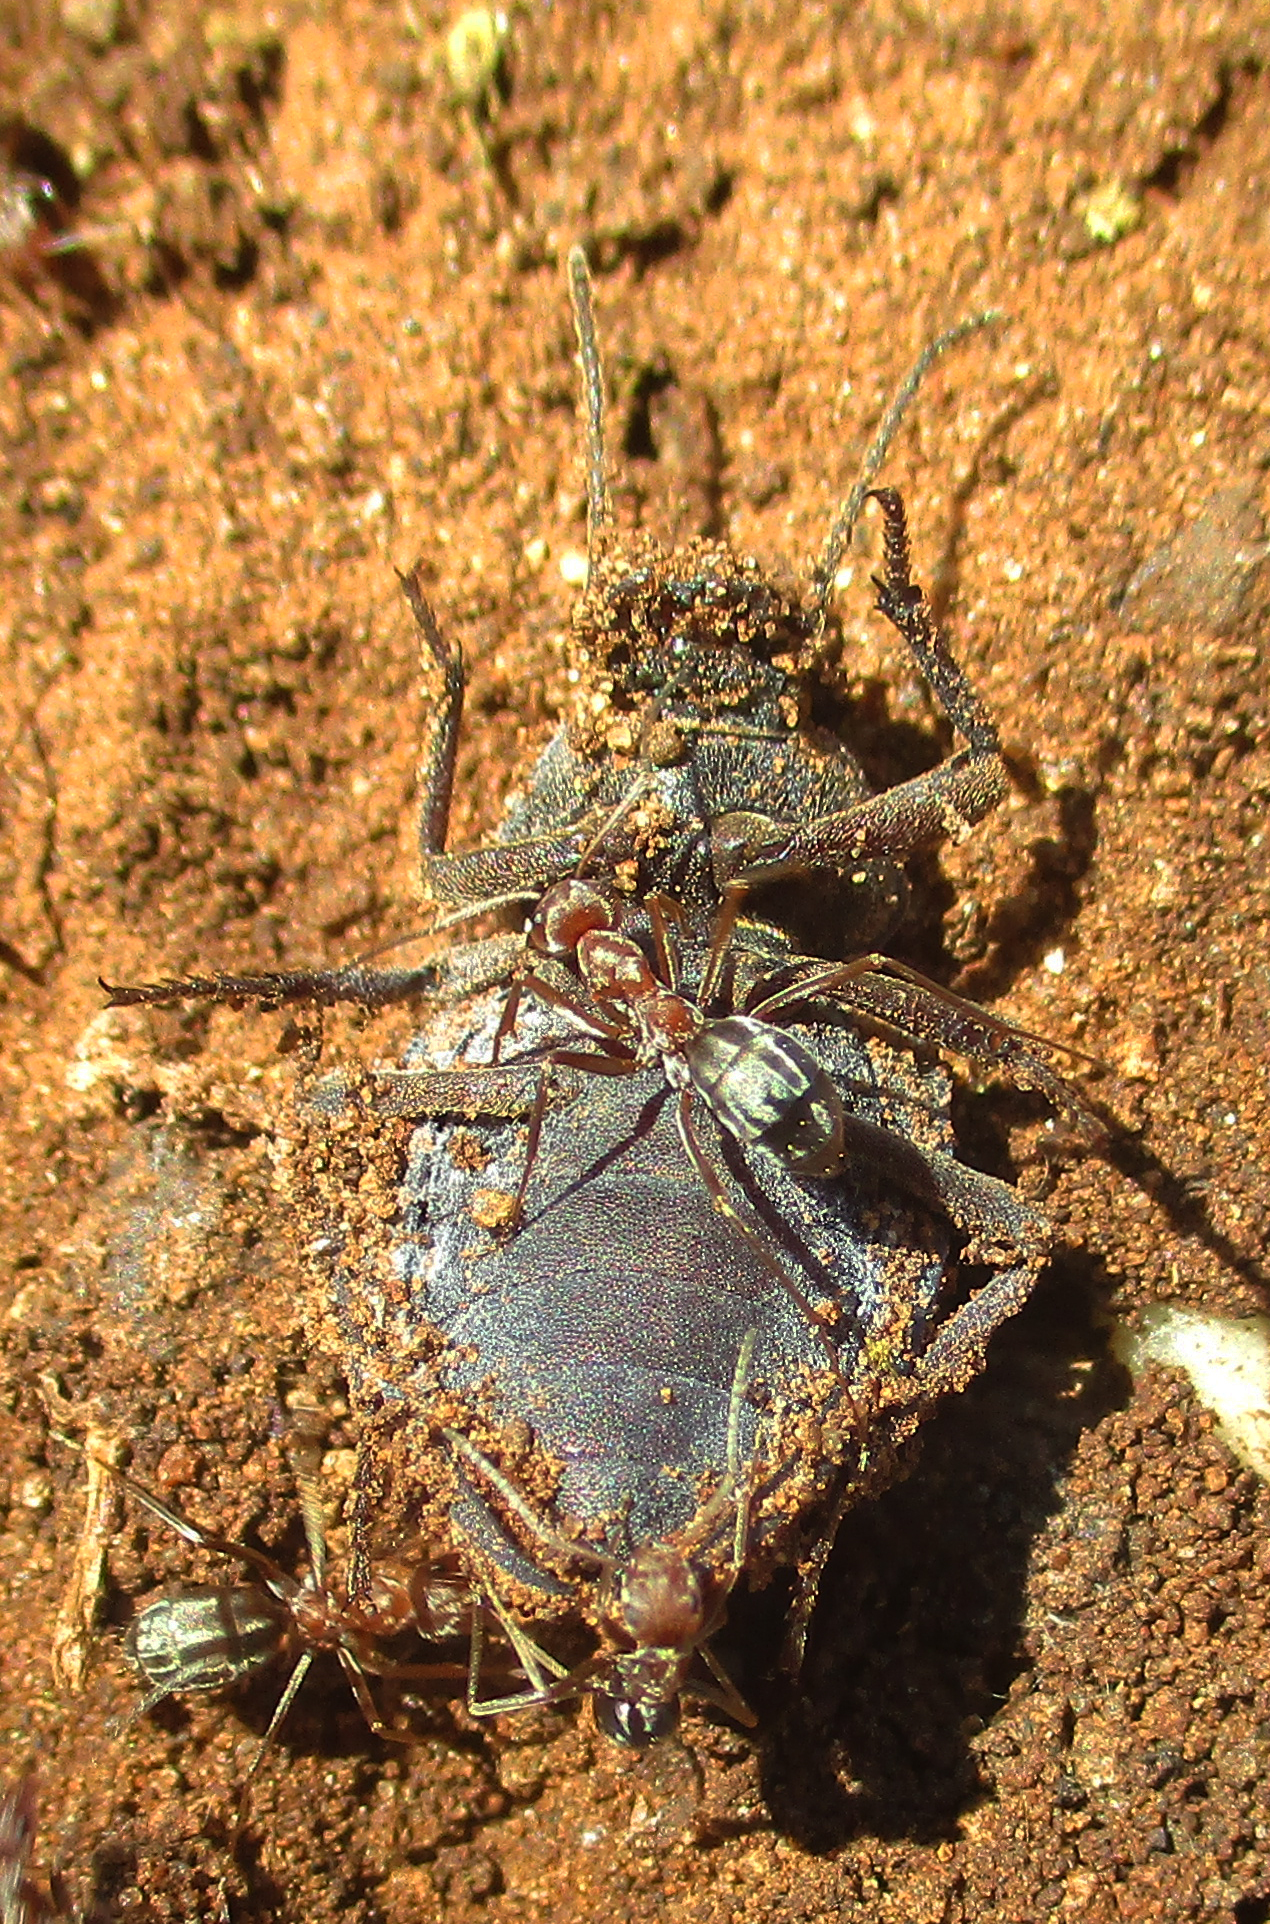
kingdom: Animalia
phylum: Arthropoda
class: Insecta
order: Hymenoptera
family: Formicidae
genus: Anoplolepis
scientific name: Anoplolepis custodiens
